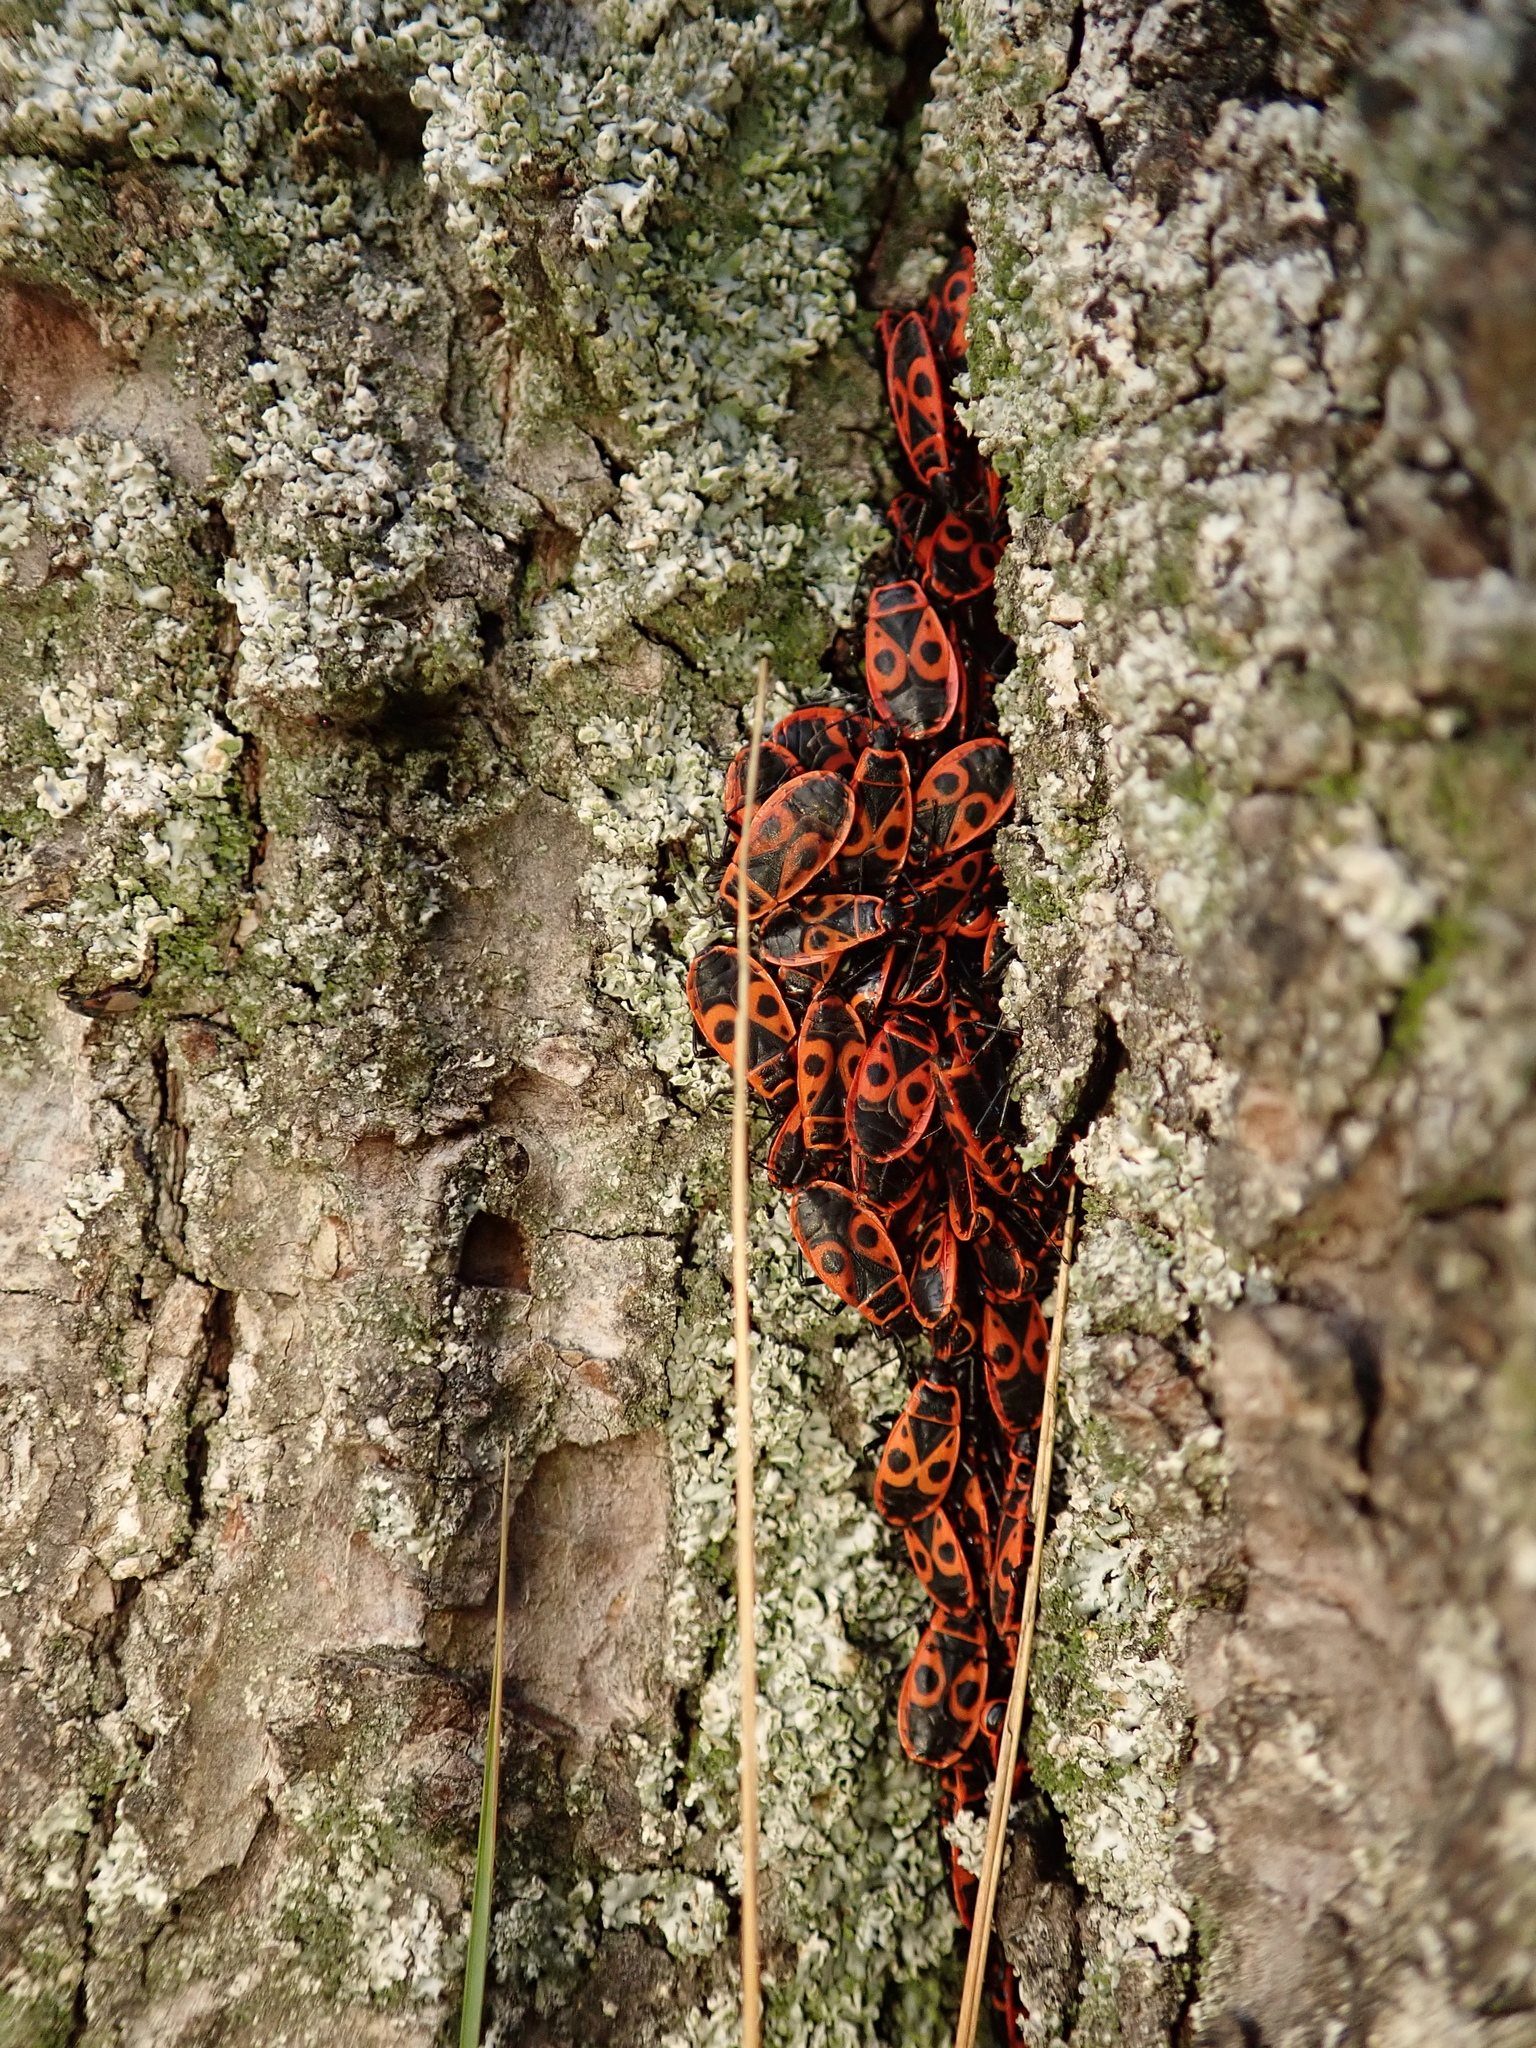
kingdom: Animalia
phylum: Arthropoda
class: Insecta
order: Hemiptera
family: Pyrrhocoridae
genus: Pyrrhocoris
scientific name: Pyrrhocoris apterus
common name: Firebug
